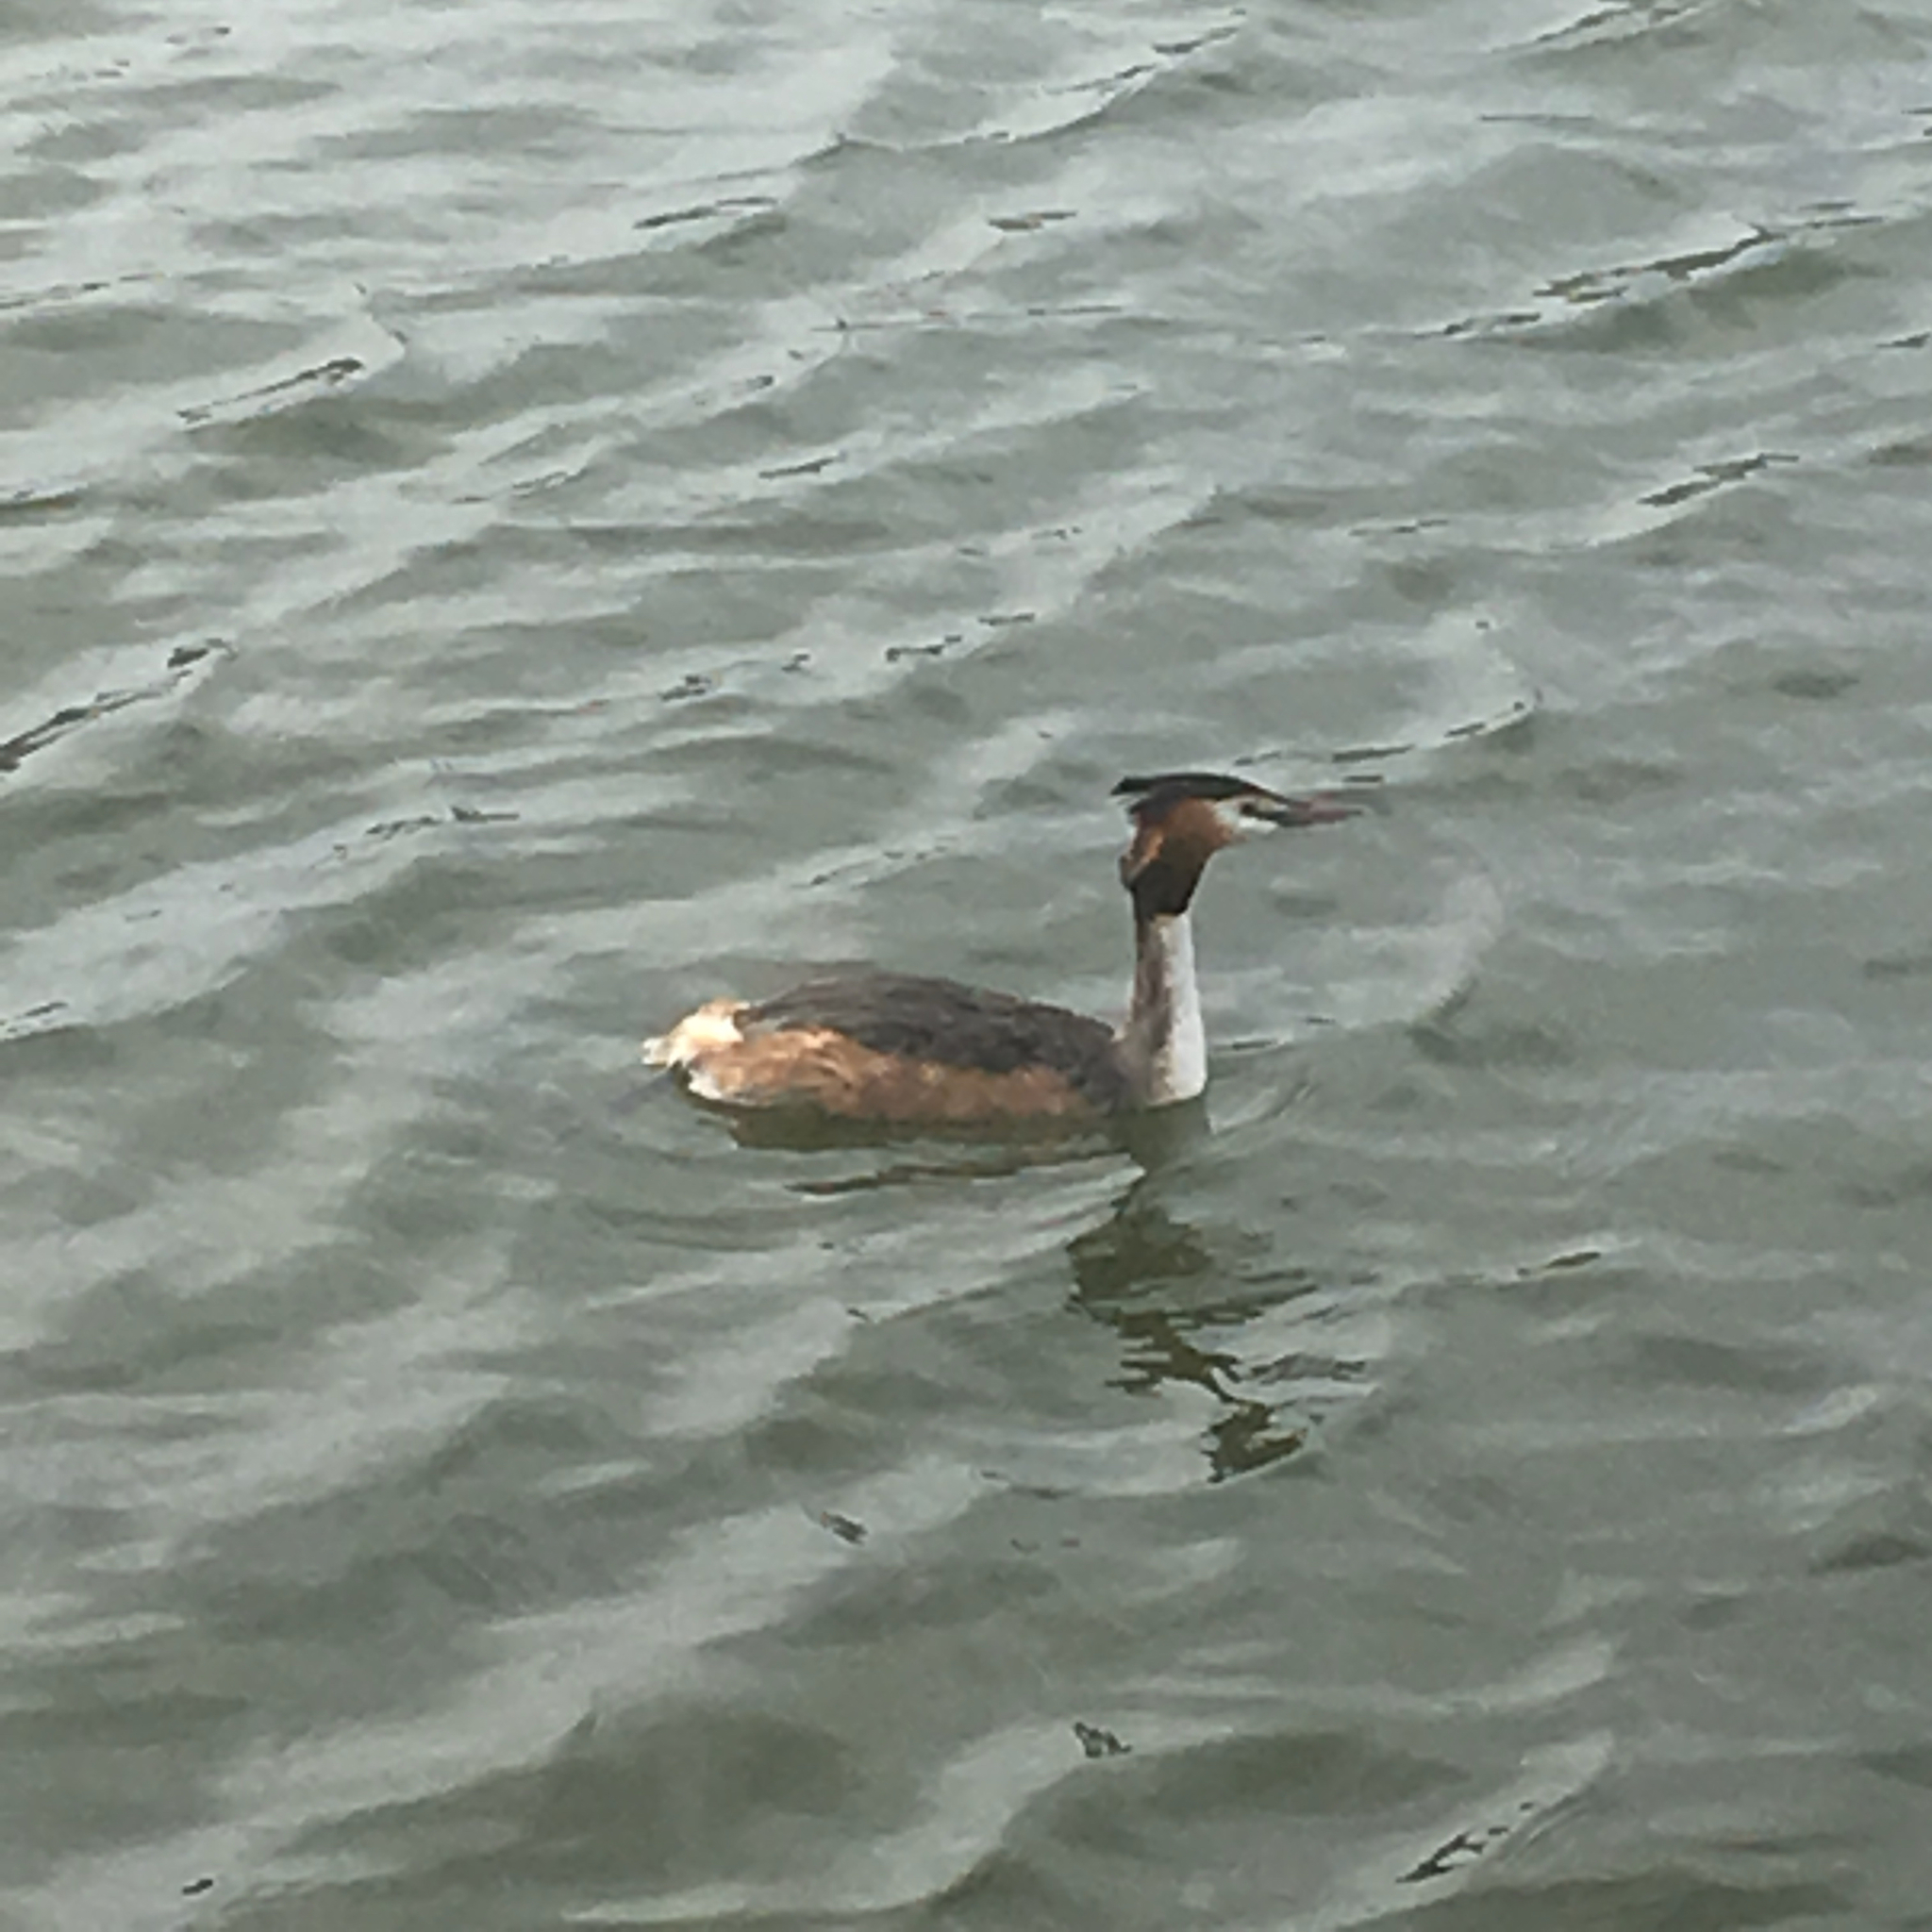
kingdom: Animalia
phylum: Chordata
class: Aves
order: Podicipediformes
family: Podicipedidae
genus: Podiceps
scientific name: Podiceps cristatus
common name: Great crested grebe
